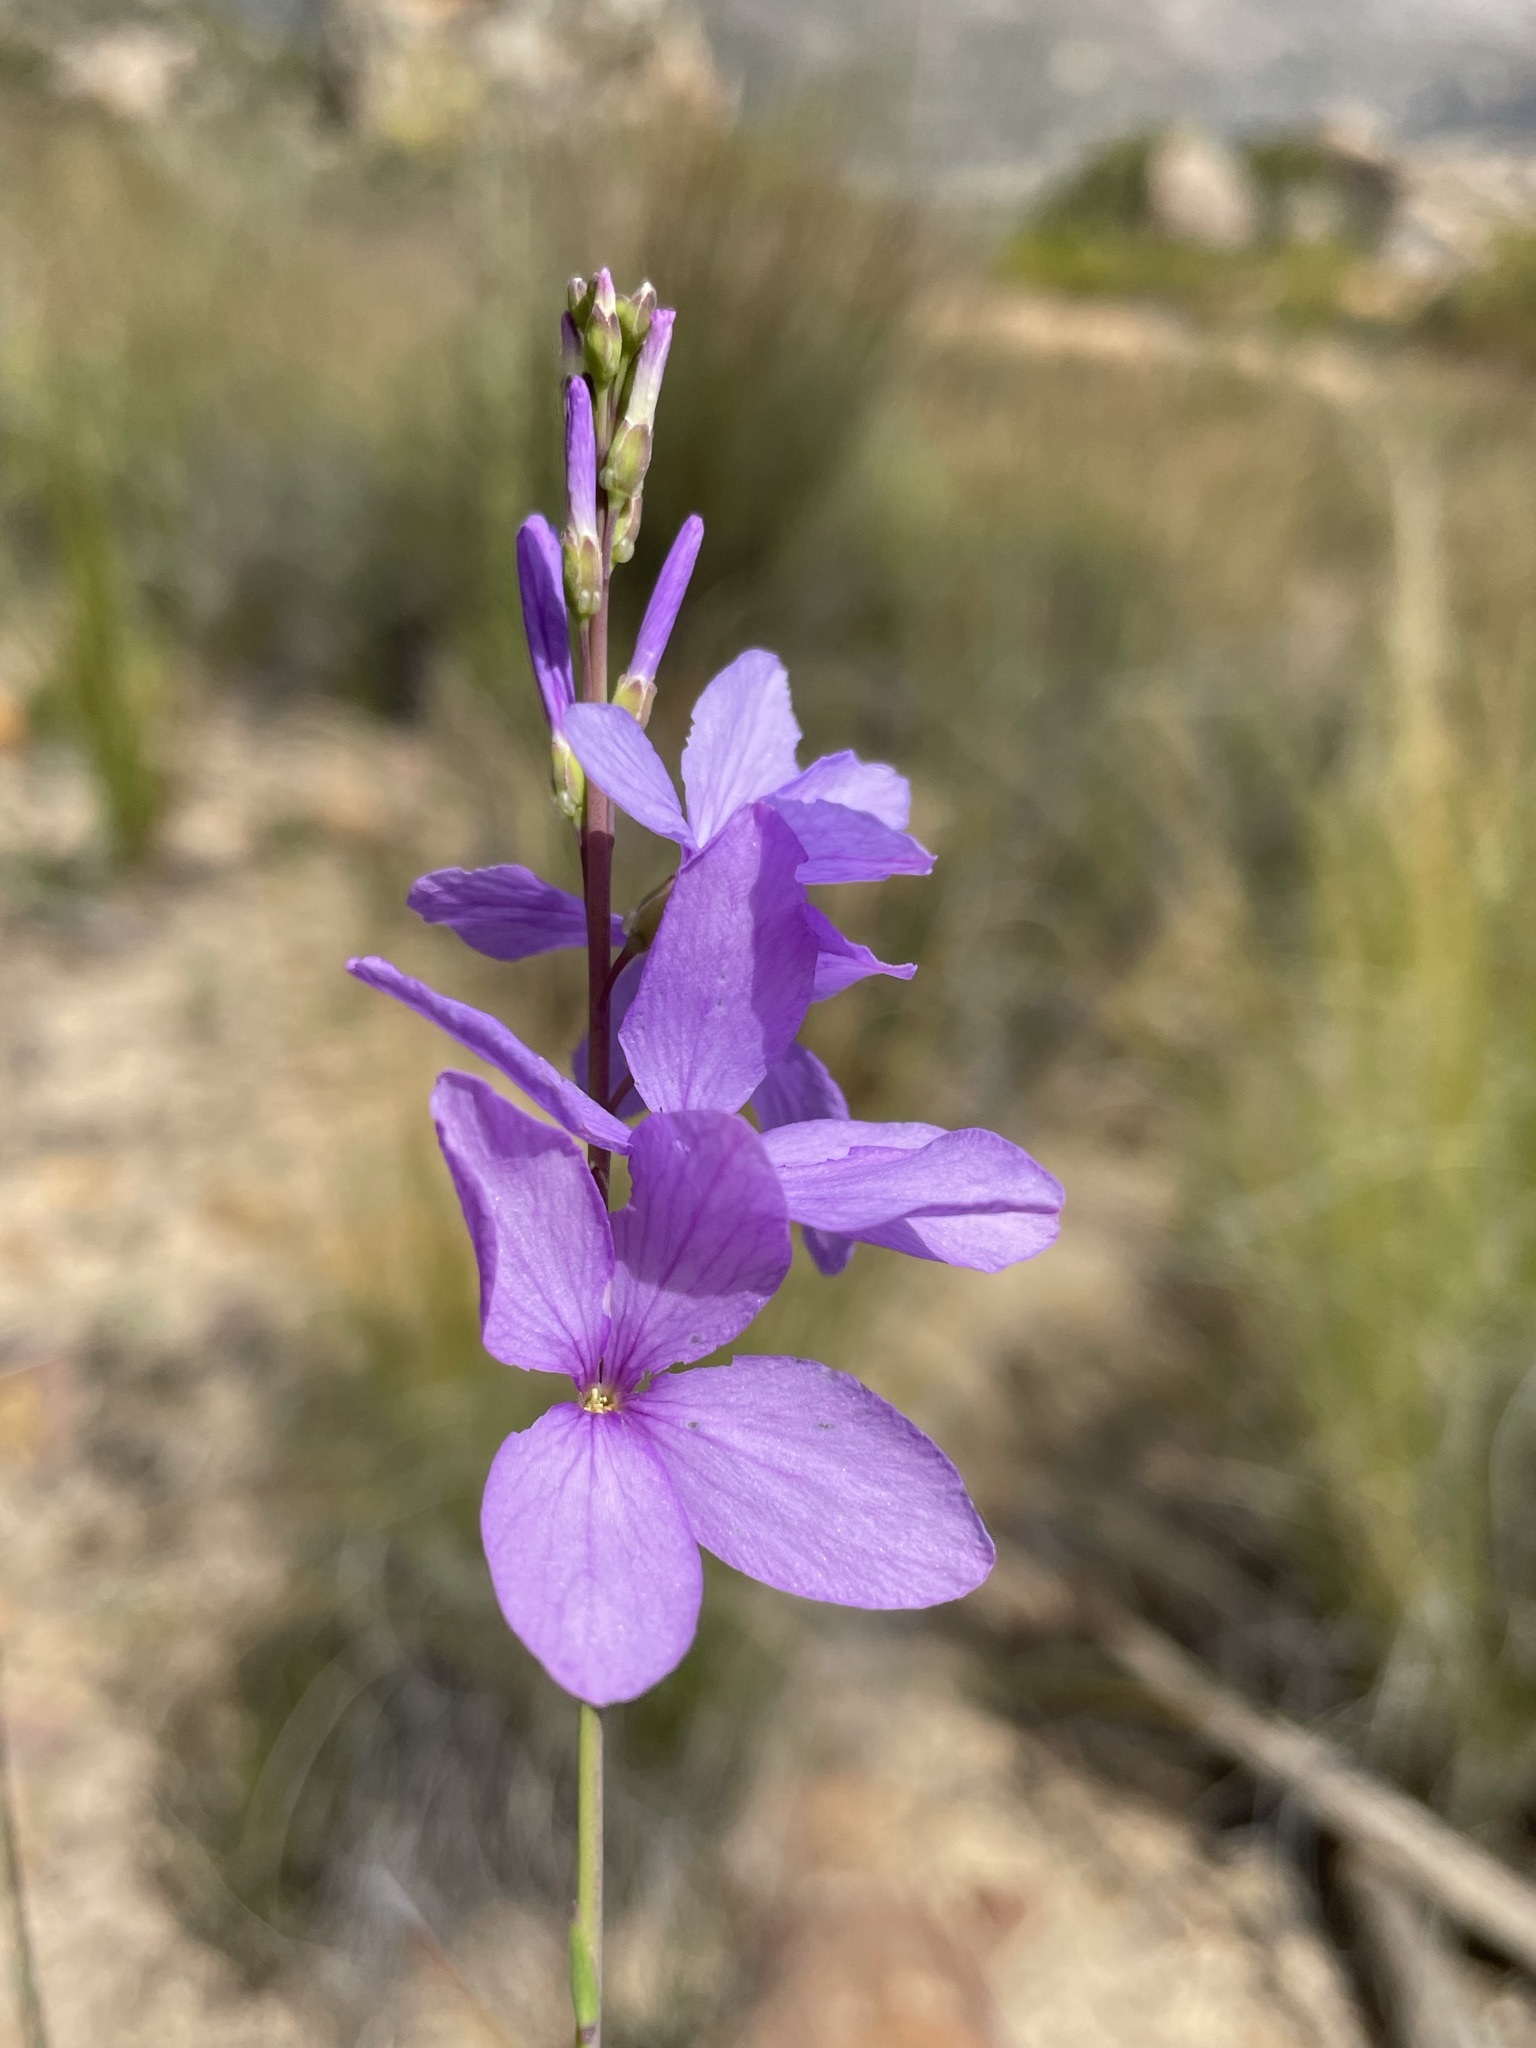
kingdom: Plantae
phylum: Tracheophyta
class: Magnoliopsida
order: Brassicales
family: Brassicaceae
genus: Heliophila
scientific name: Heliophila juncea
